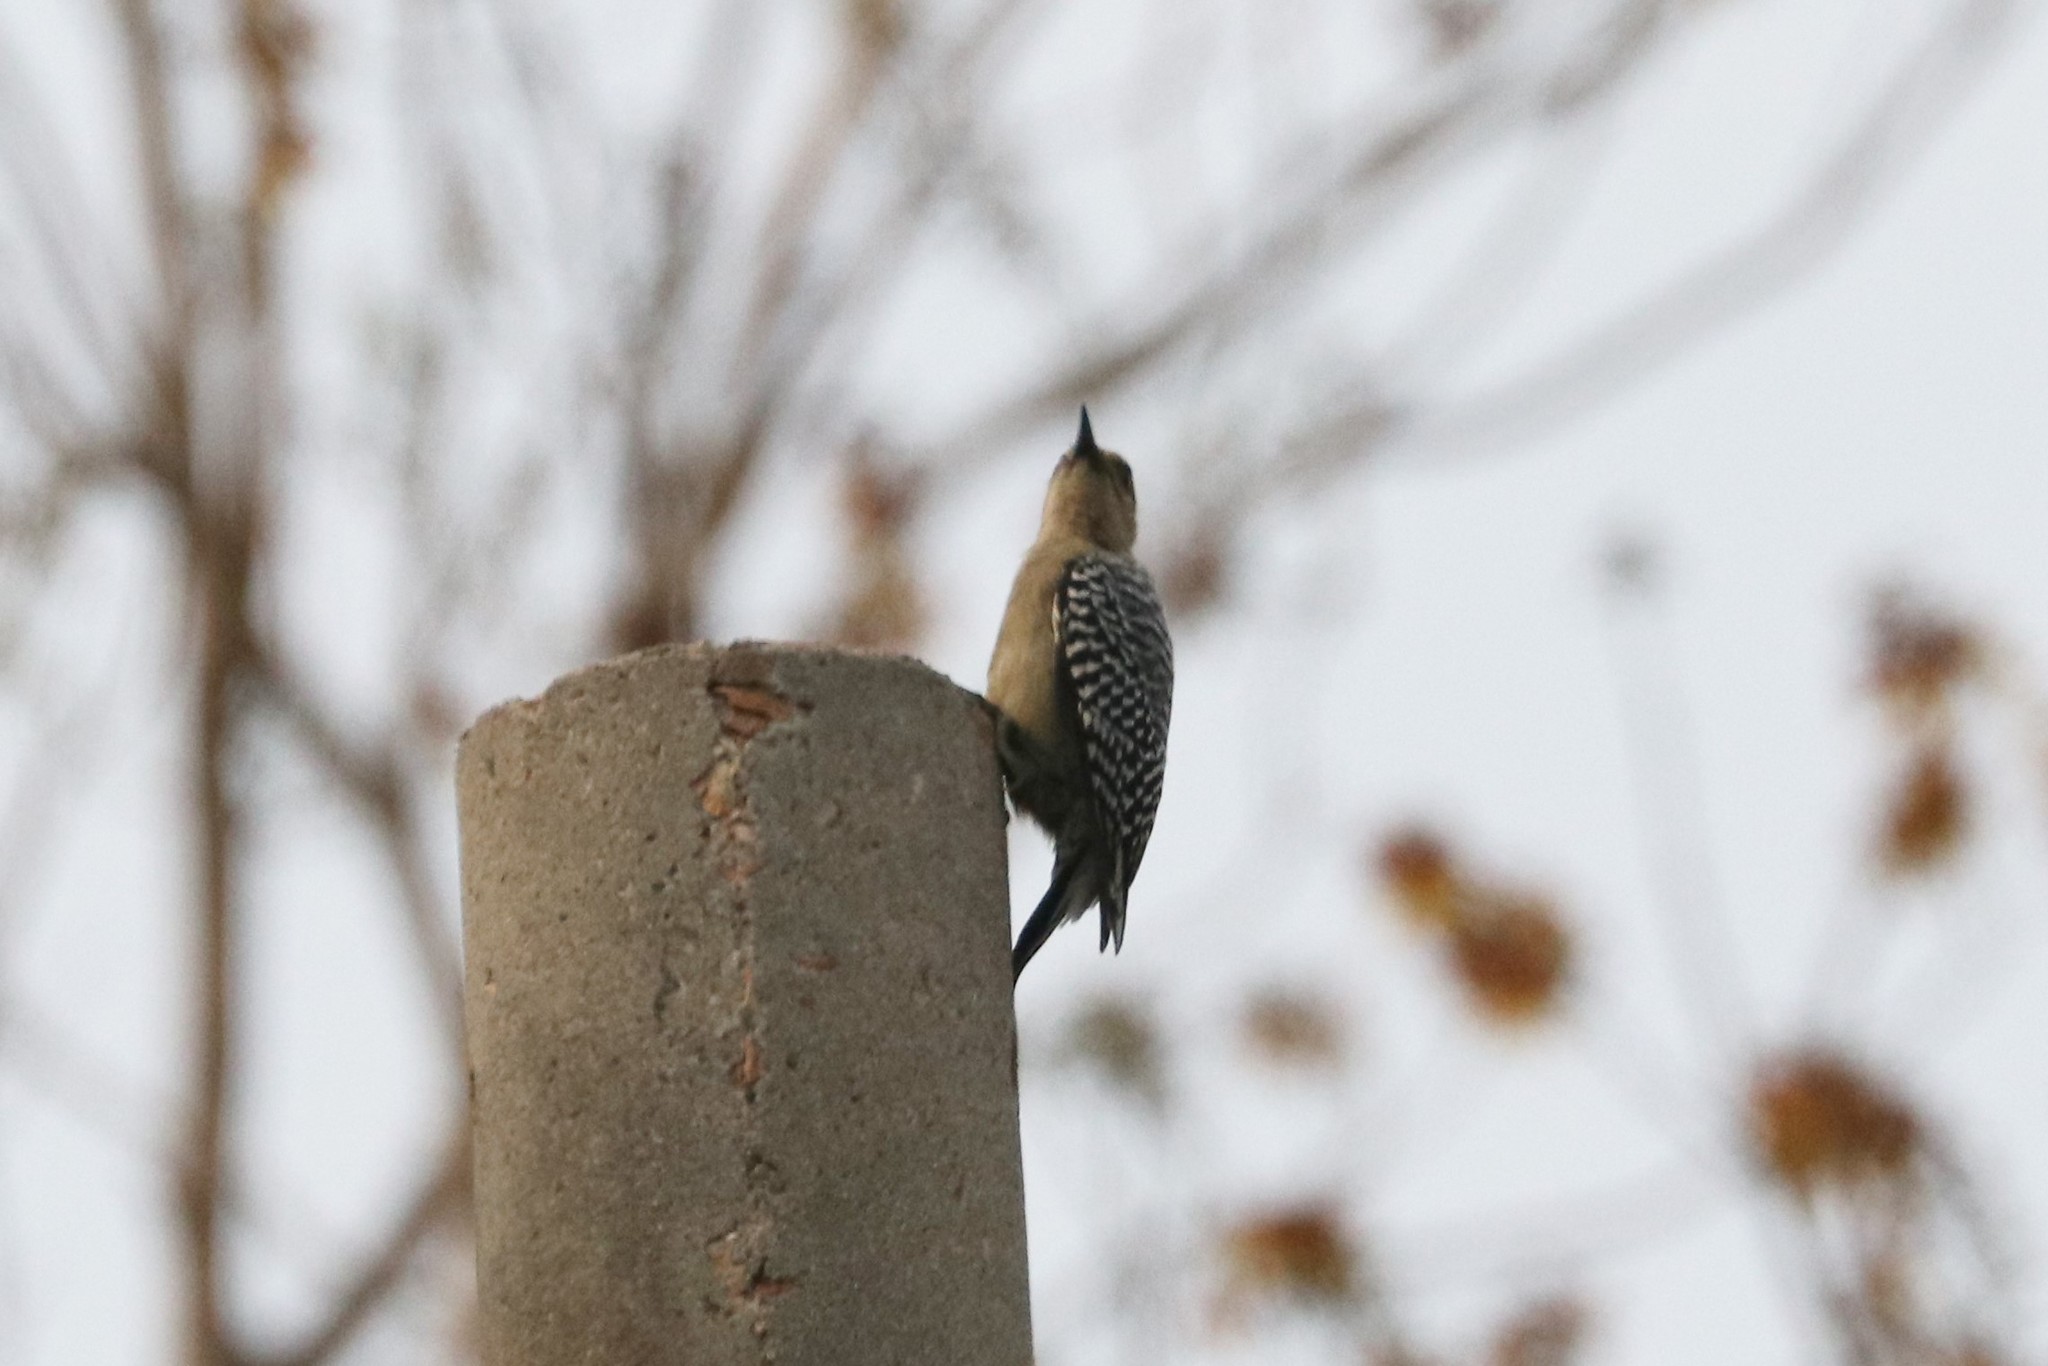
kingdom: Animalia
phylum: Chordata
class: Aves
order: Piciformes
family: Picidae
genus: Melanerpes
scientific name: Melanerpes rubricapillus
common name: Red-crowned woodpecker
